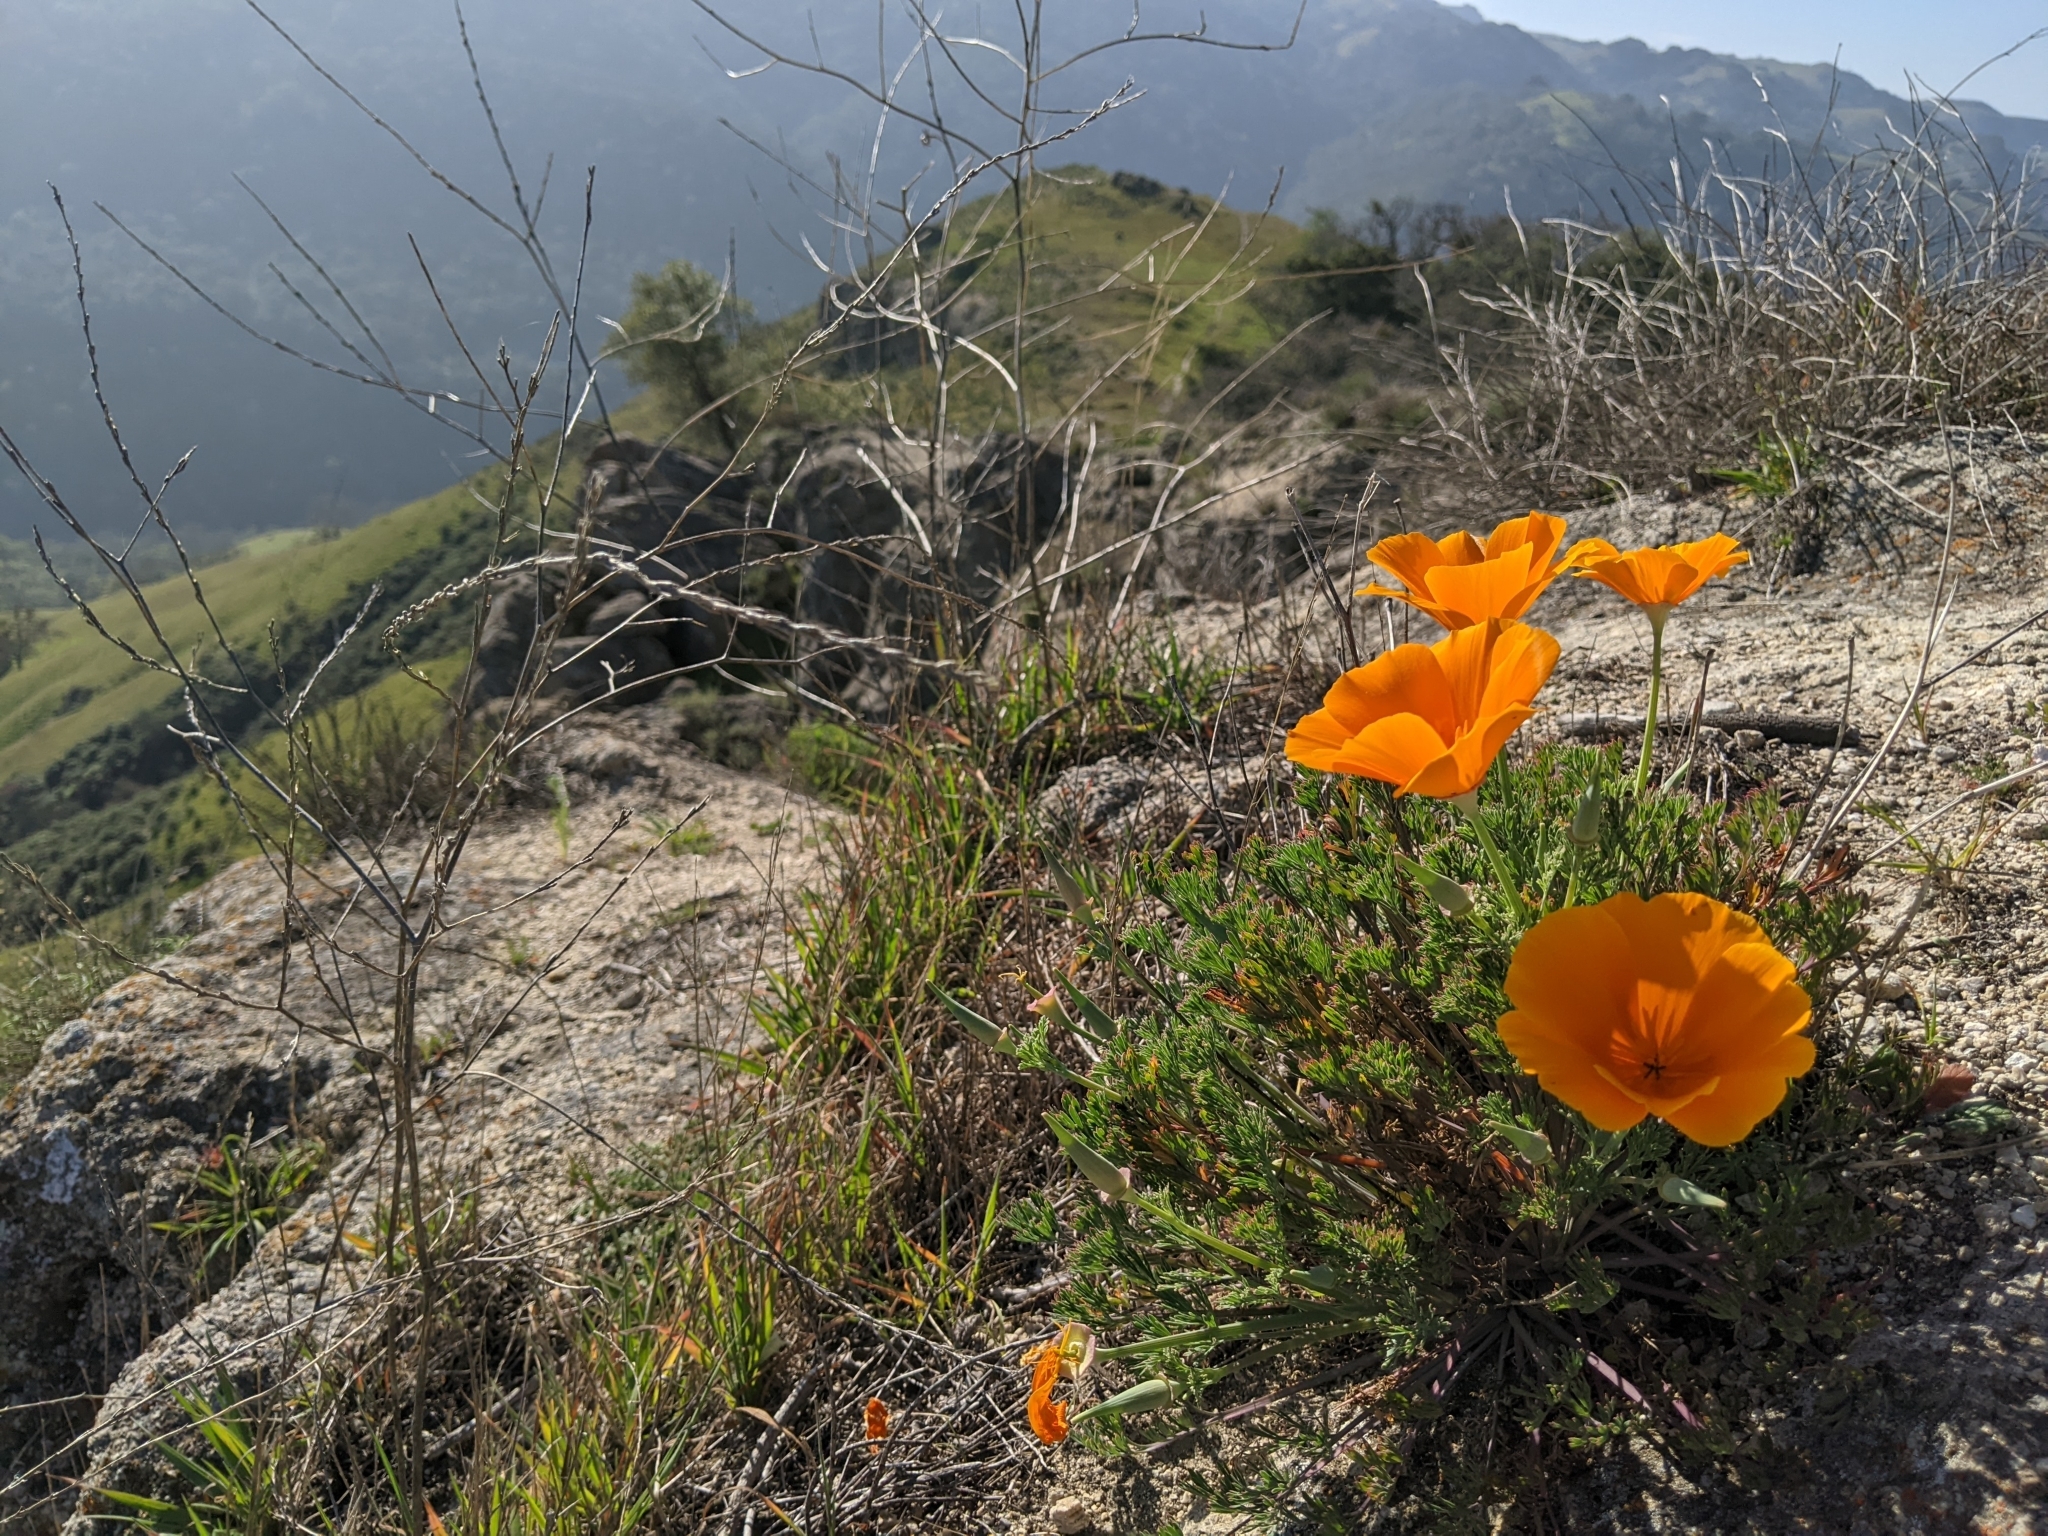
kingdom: Plantae
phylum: Tracheophyta
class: Magnoliopsida
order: Ranunculales
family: Papaveraceae
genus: Eschscholzia
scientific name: Eschscholzia californica
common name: California poppy
